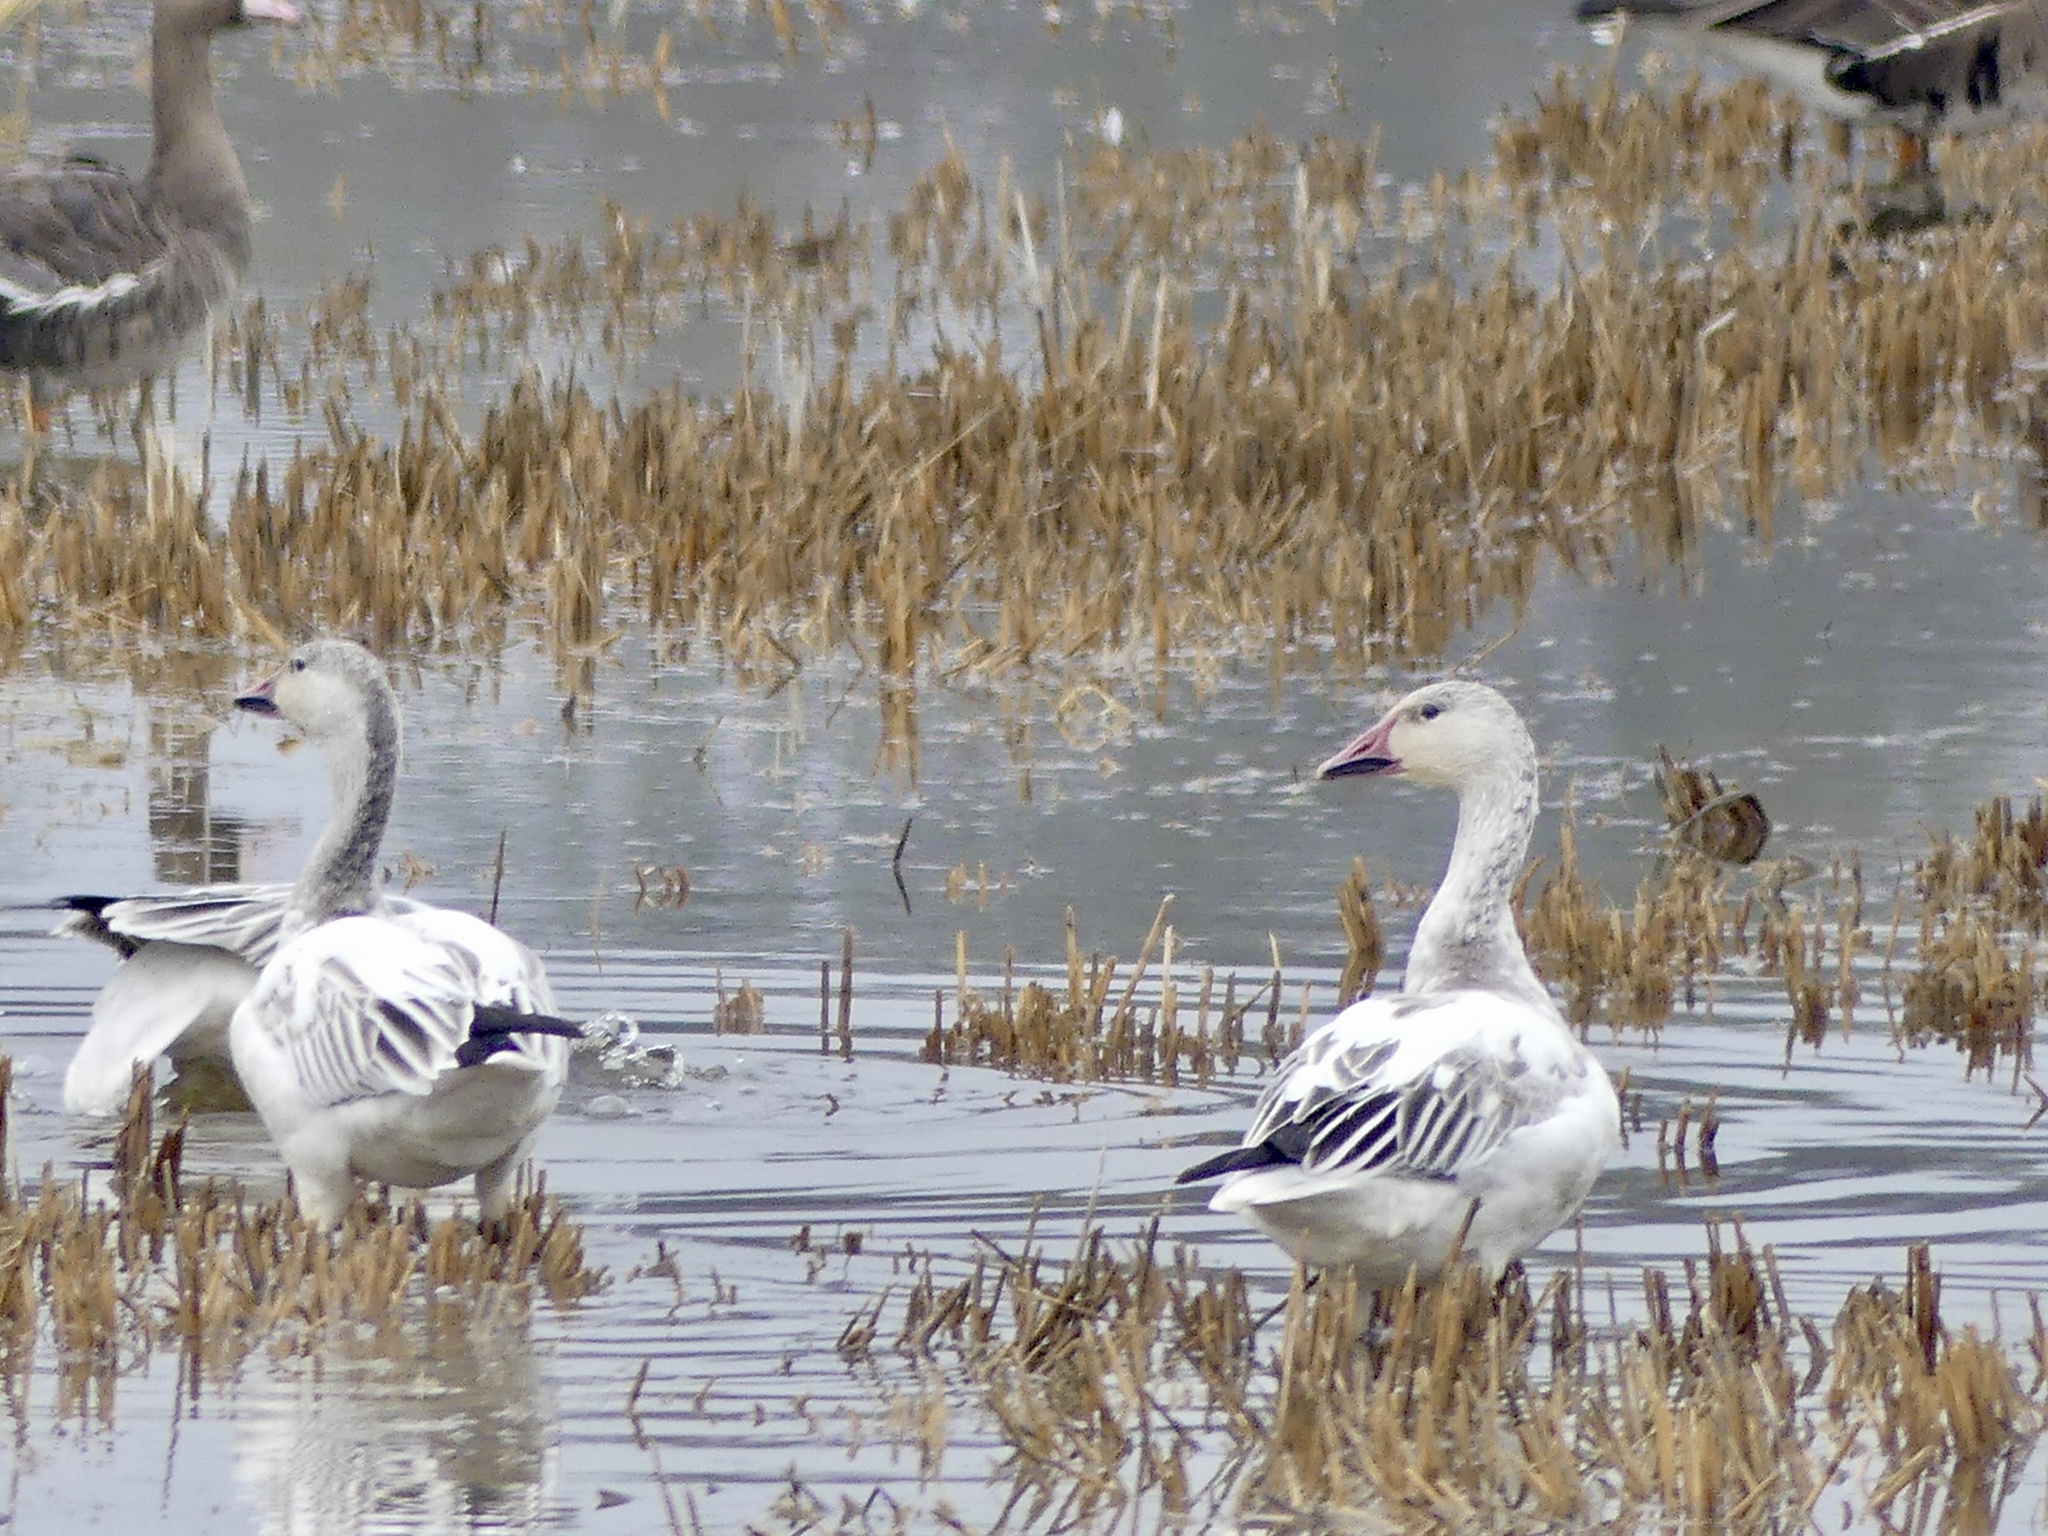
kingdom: Animalia
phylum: Chordata
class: Aves
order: Anseriformes
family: Anatidae
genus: Anser
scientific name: Anser caerulescens
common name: Snow goose
